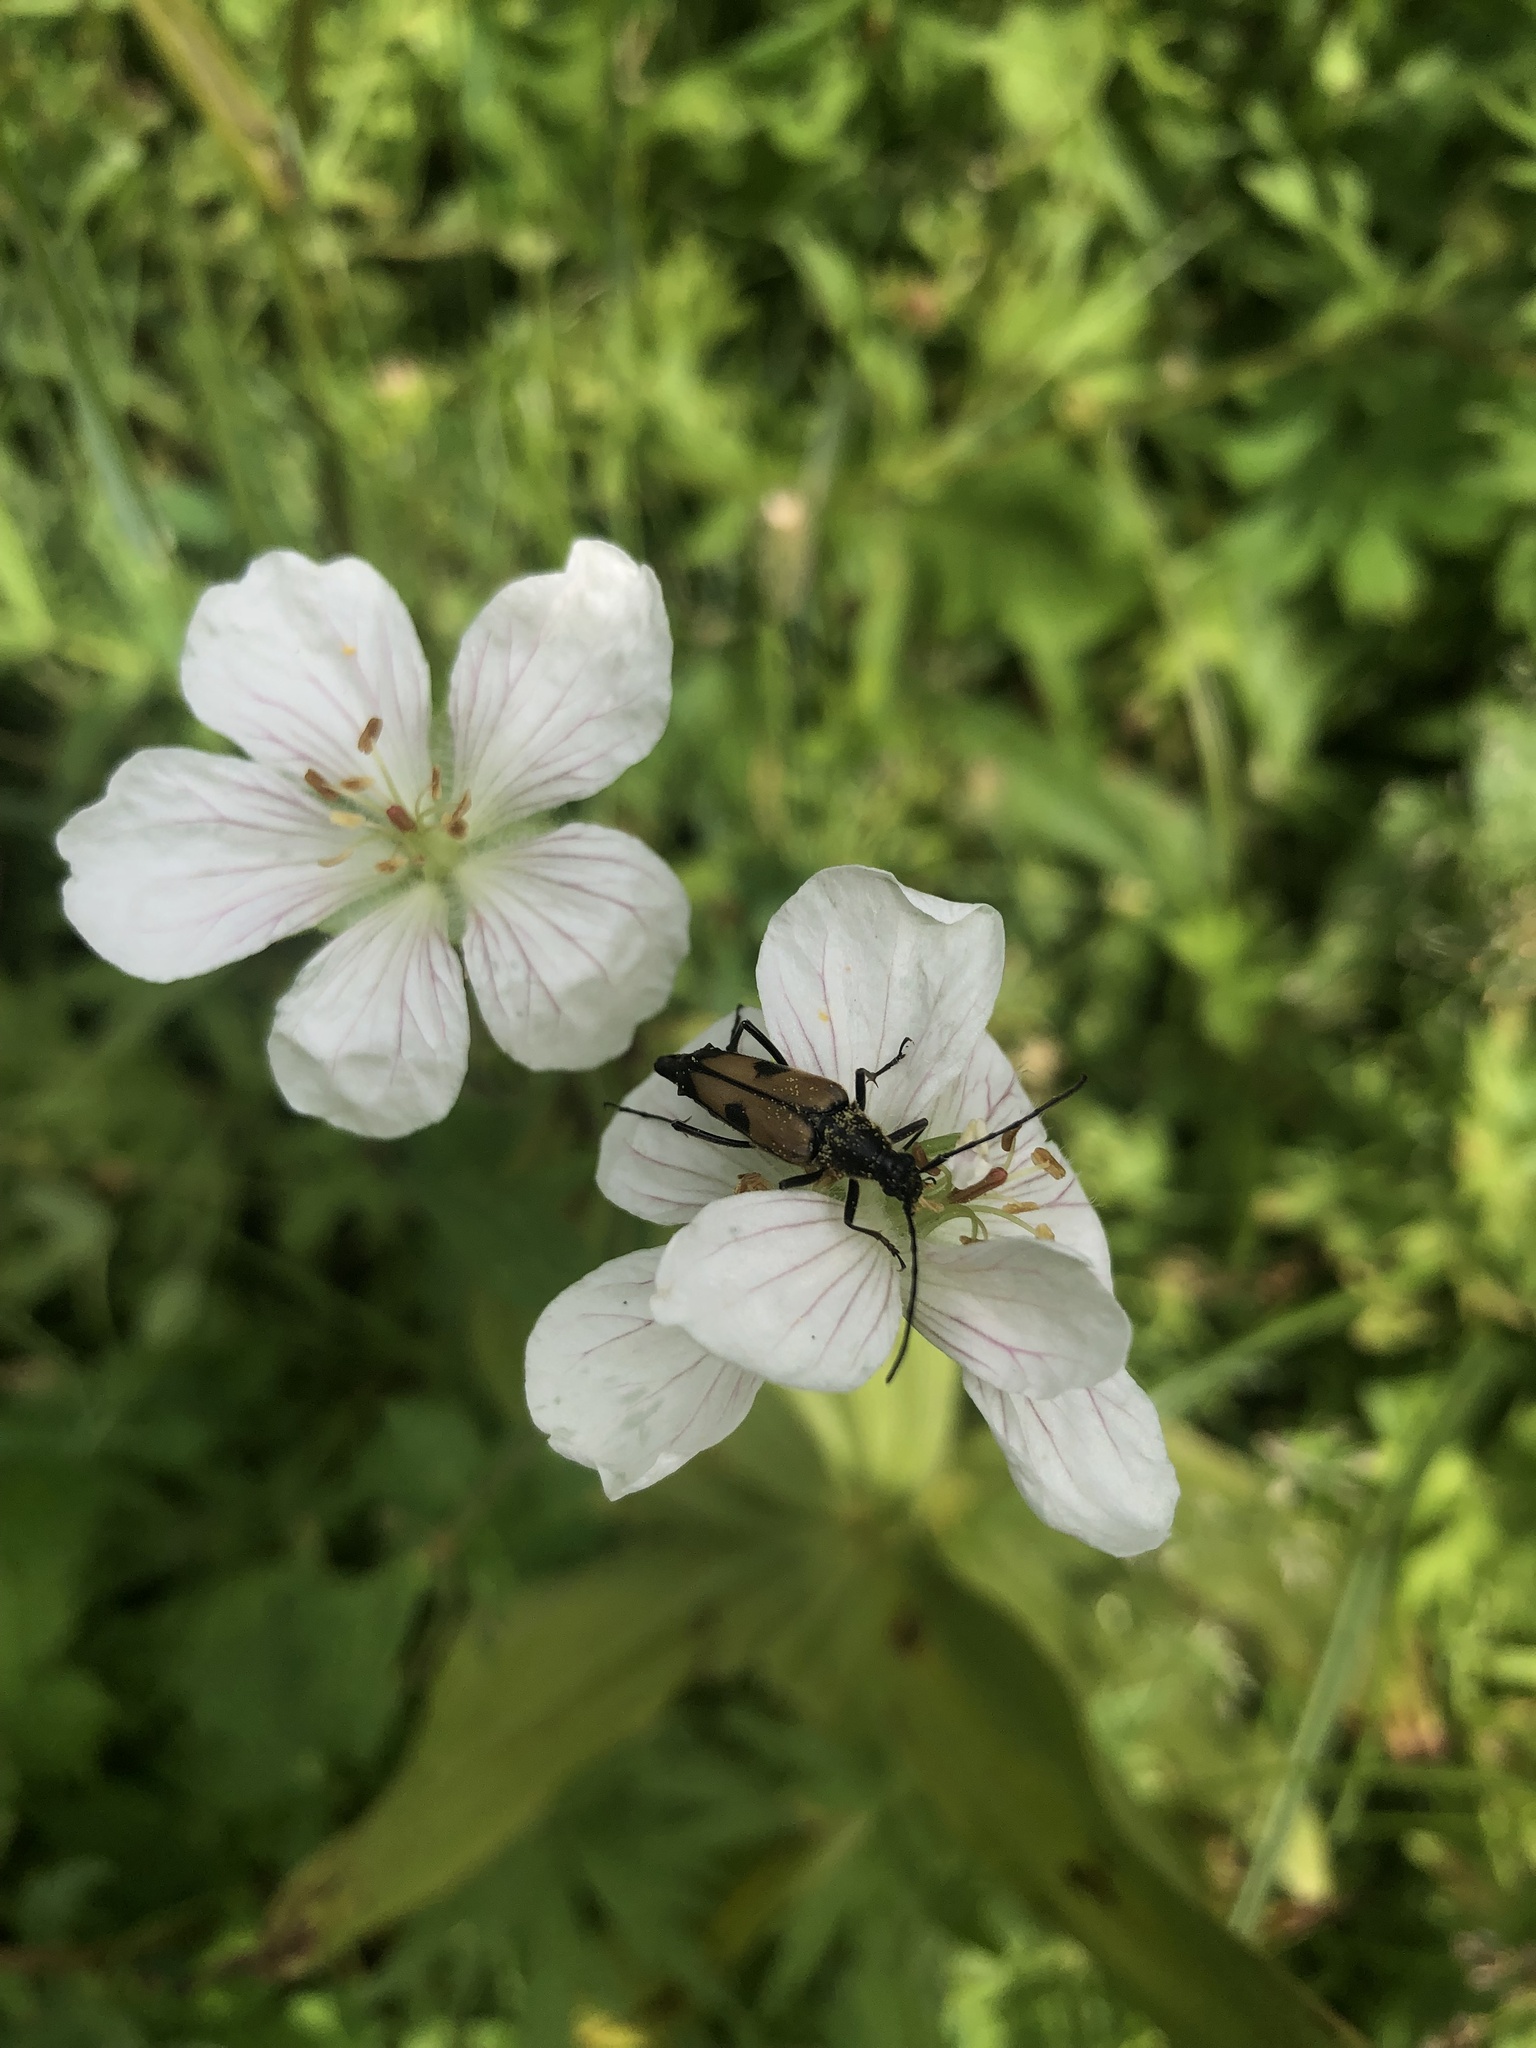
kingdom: Animalia
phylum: Arthropoda
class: Insecta
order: Coleoptera
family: Cerambycidae
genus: Etorofus
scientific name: Etorofus
